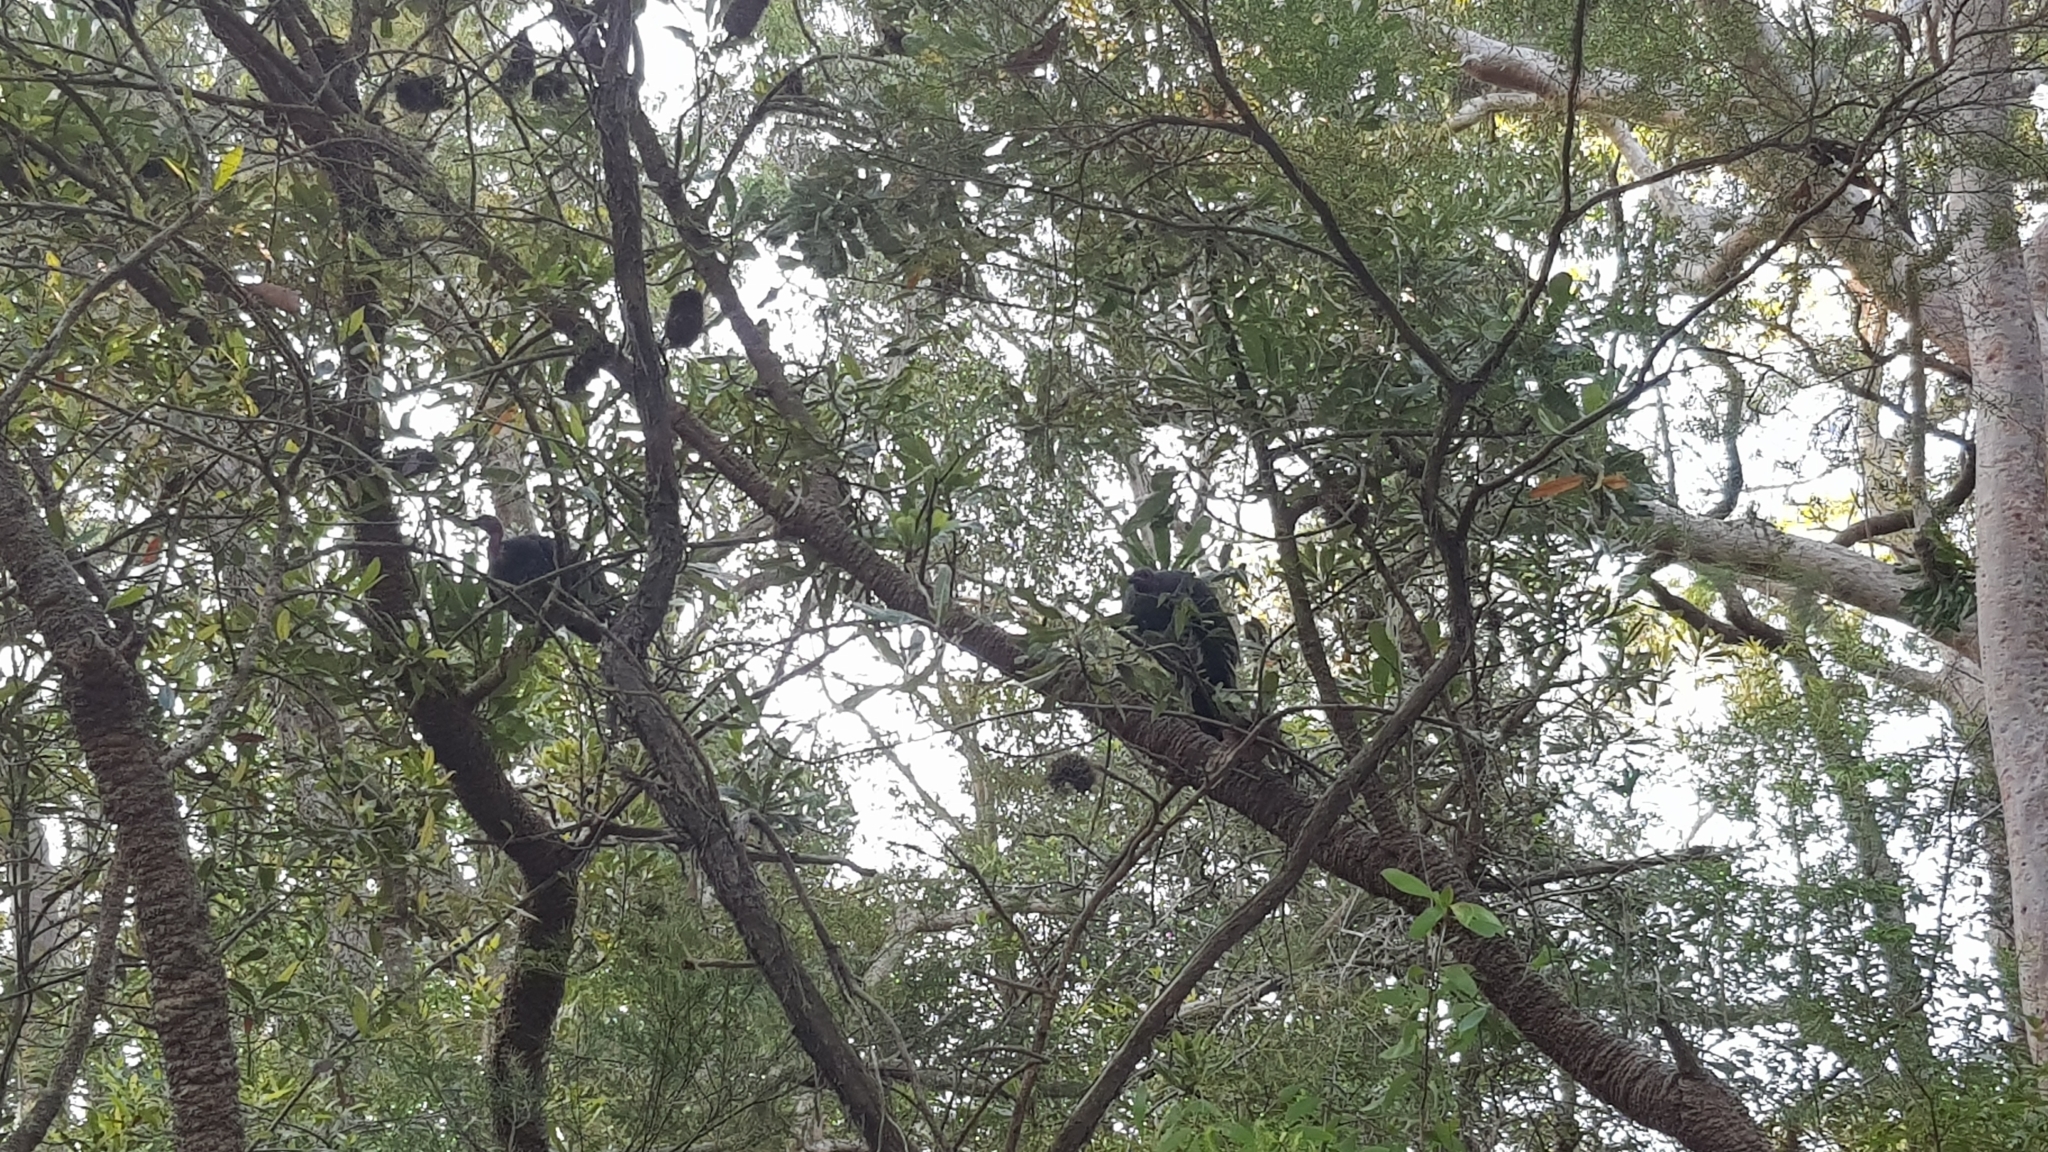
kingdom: Animalia
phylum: Chordata
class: Aves
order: Galliformes
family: Megapodiidae
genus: Alectura
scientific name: Alectura lathami
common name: Australian brushturkey
